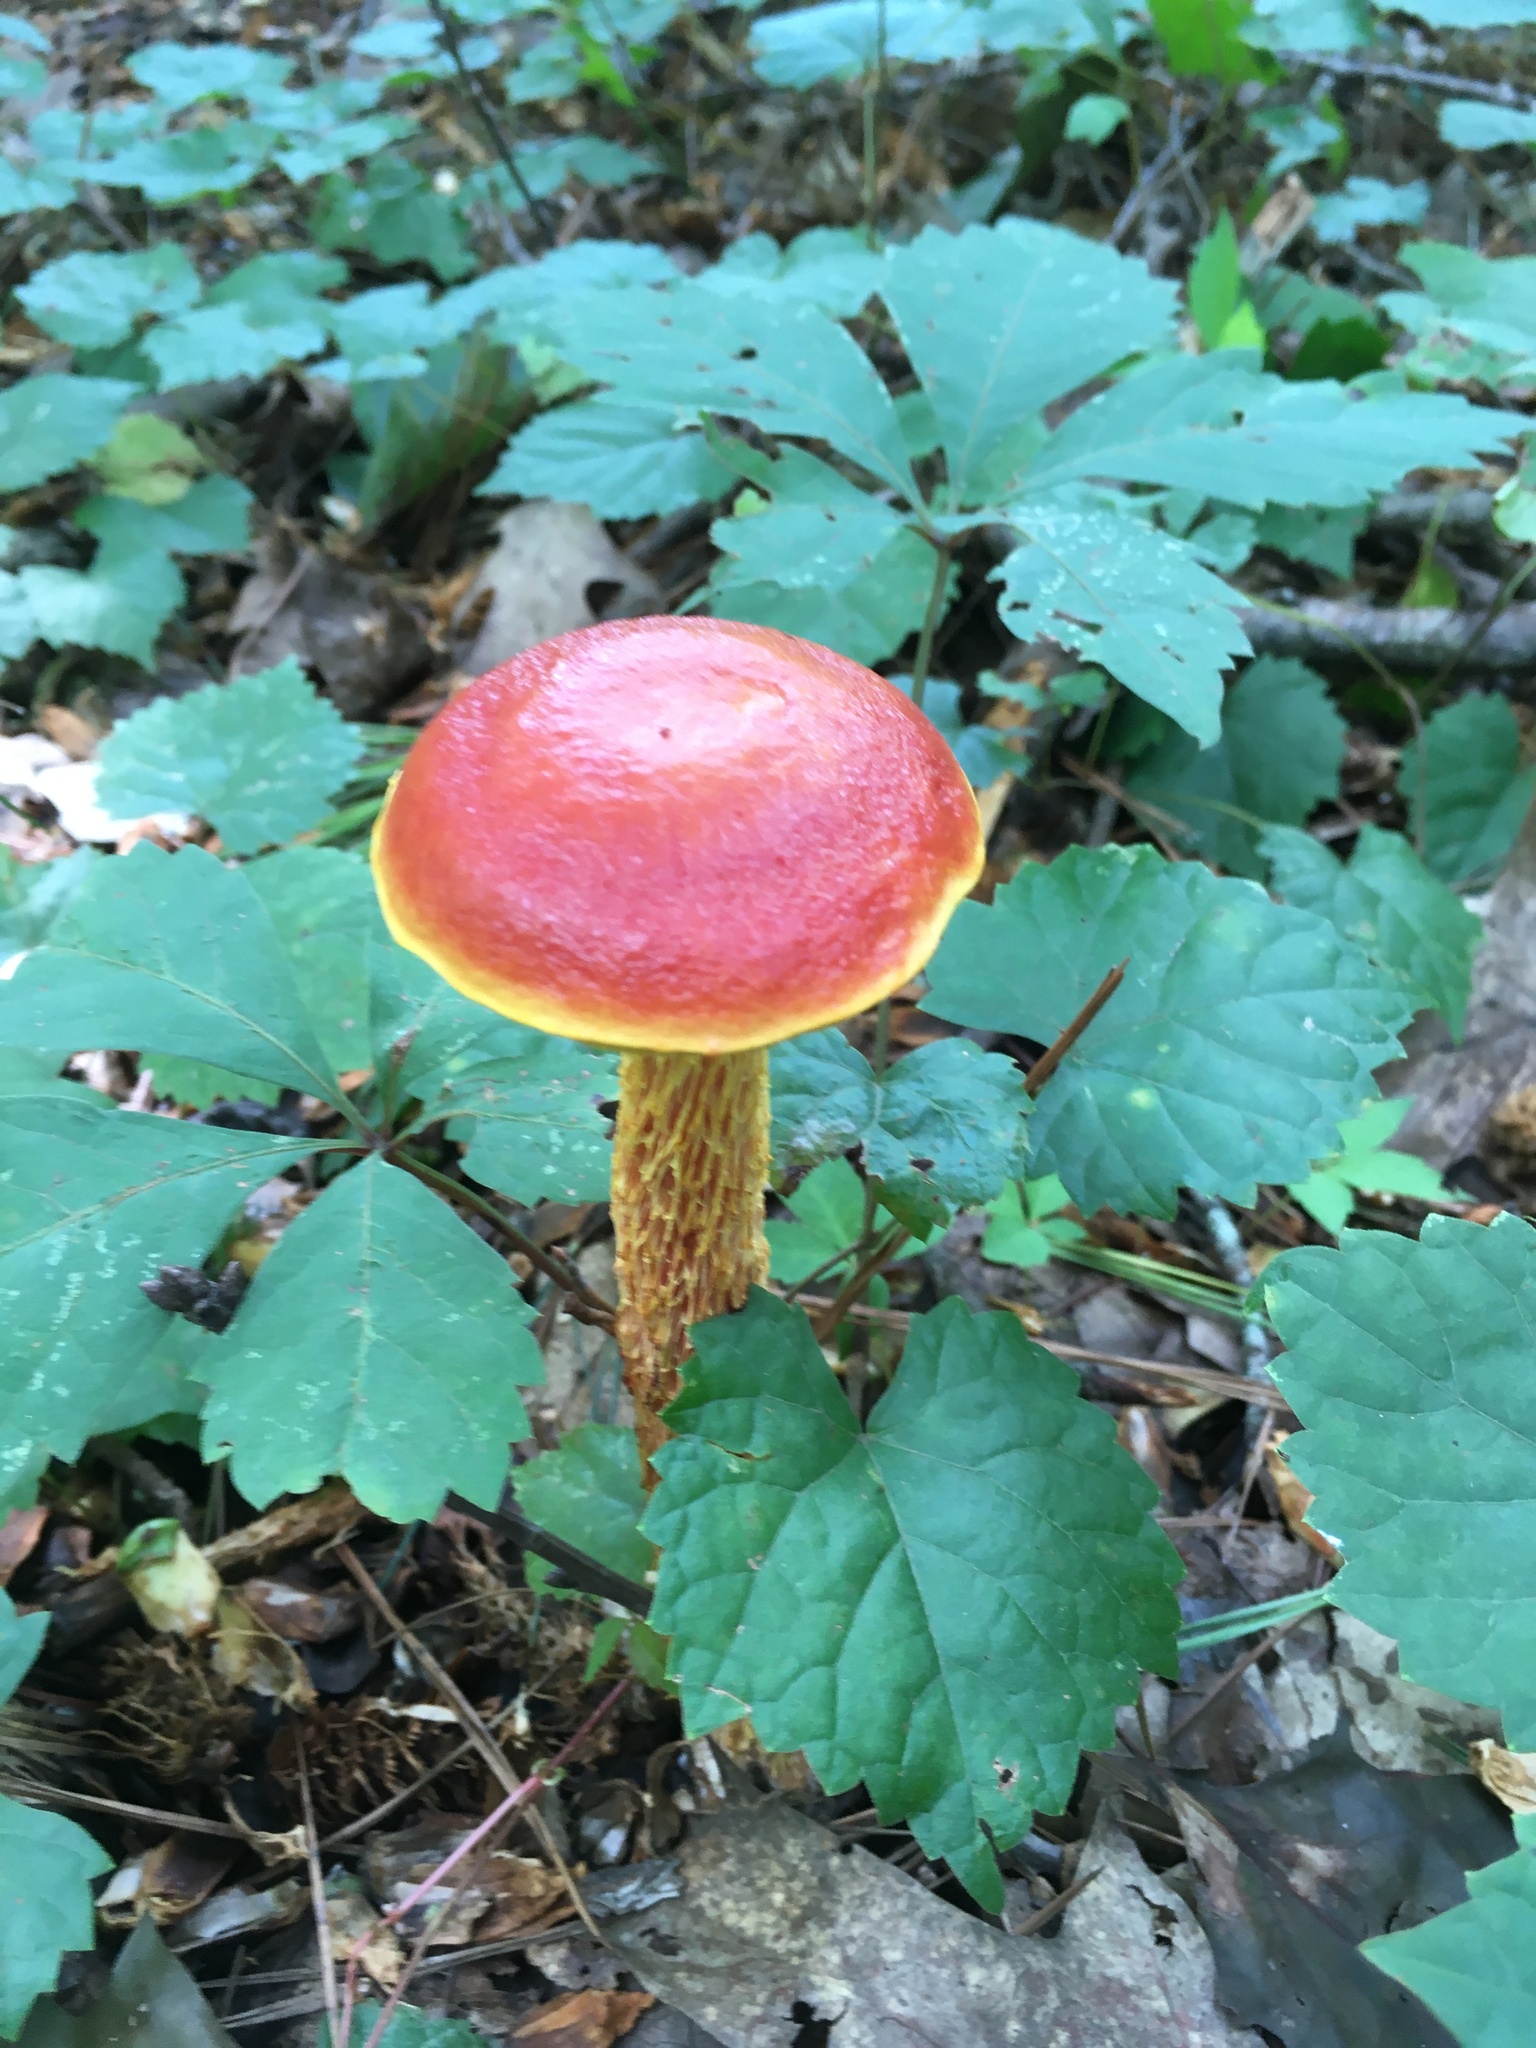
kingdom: Fungi
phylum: Basidiomycota
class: Agaricomycetes
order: Boletales
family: Boletaceae
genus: Aureoboletus
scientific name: Aureoboletus betula
